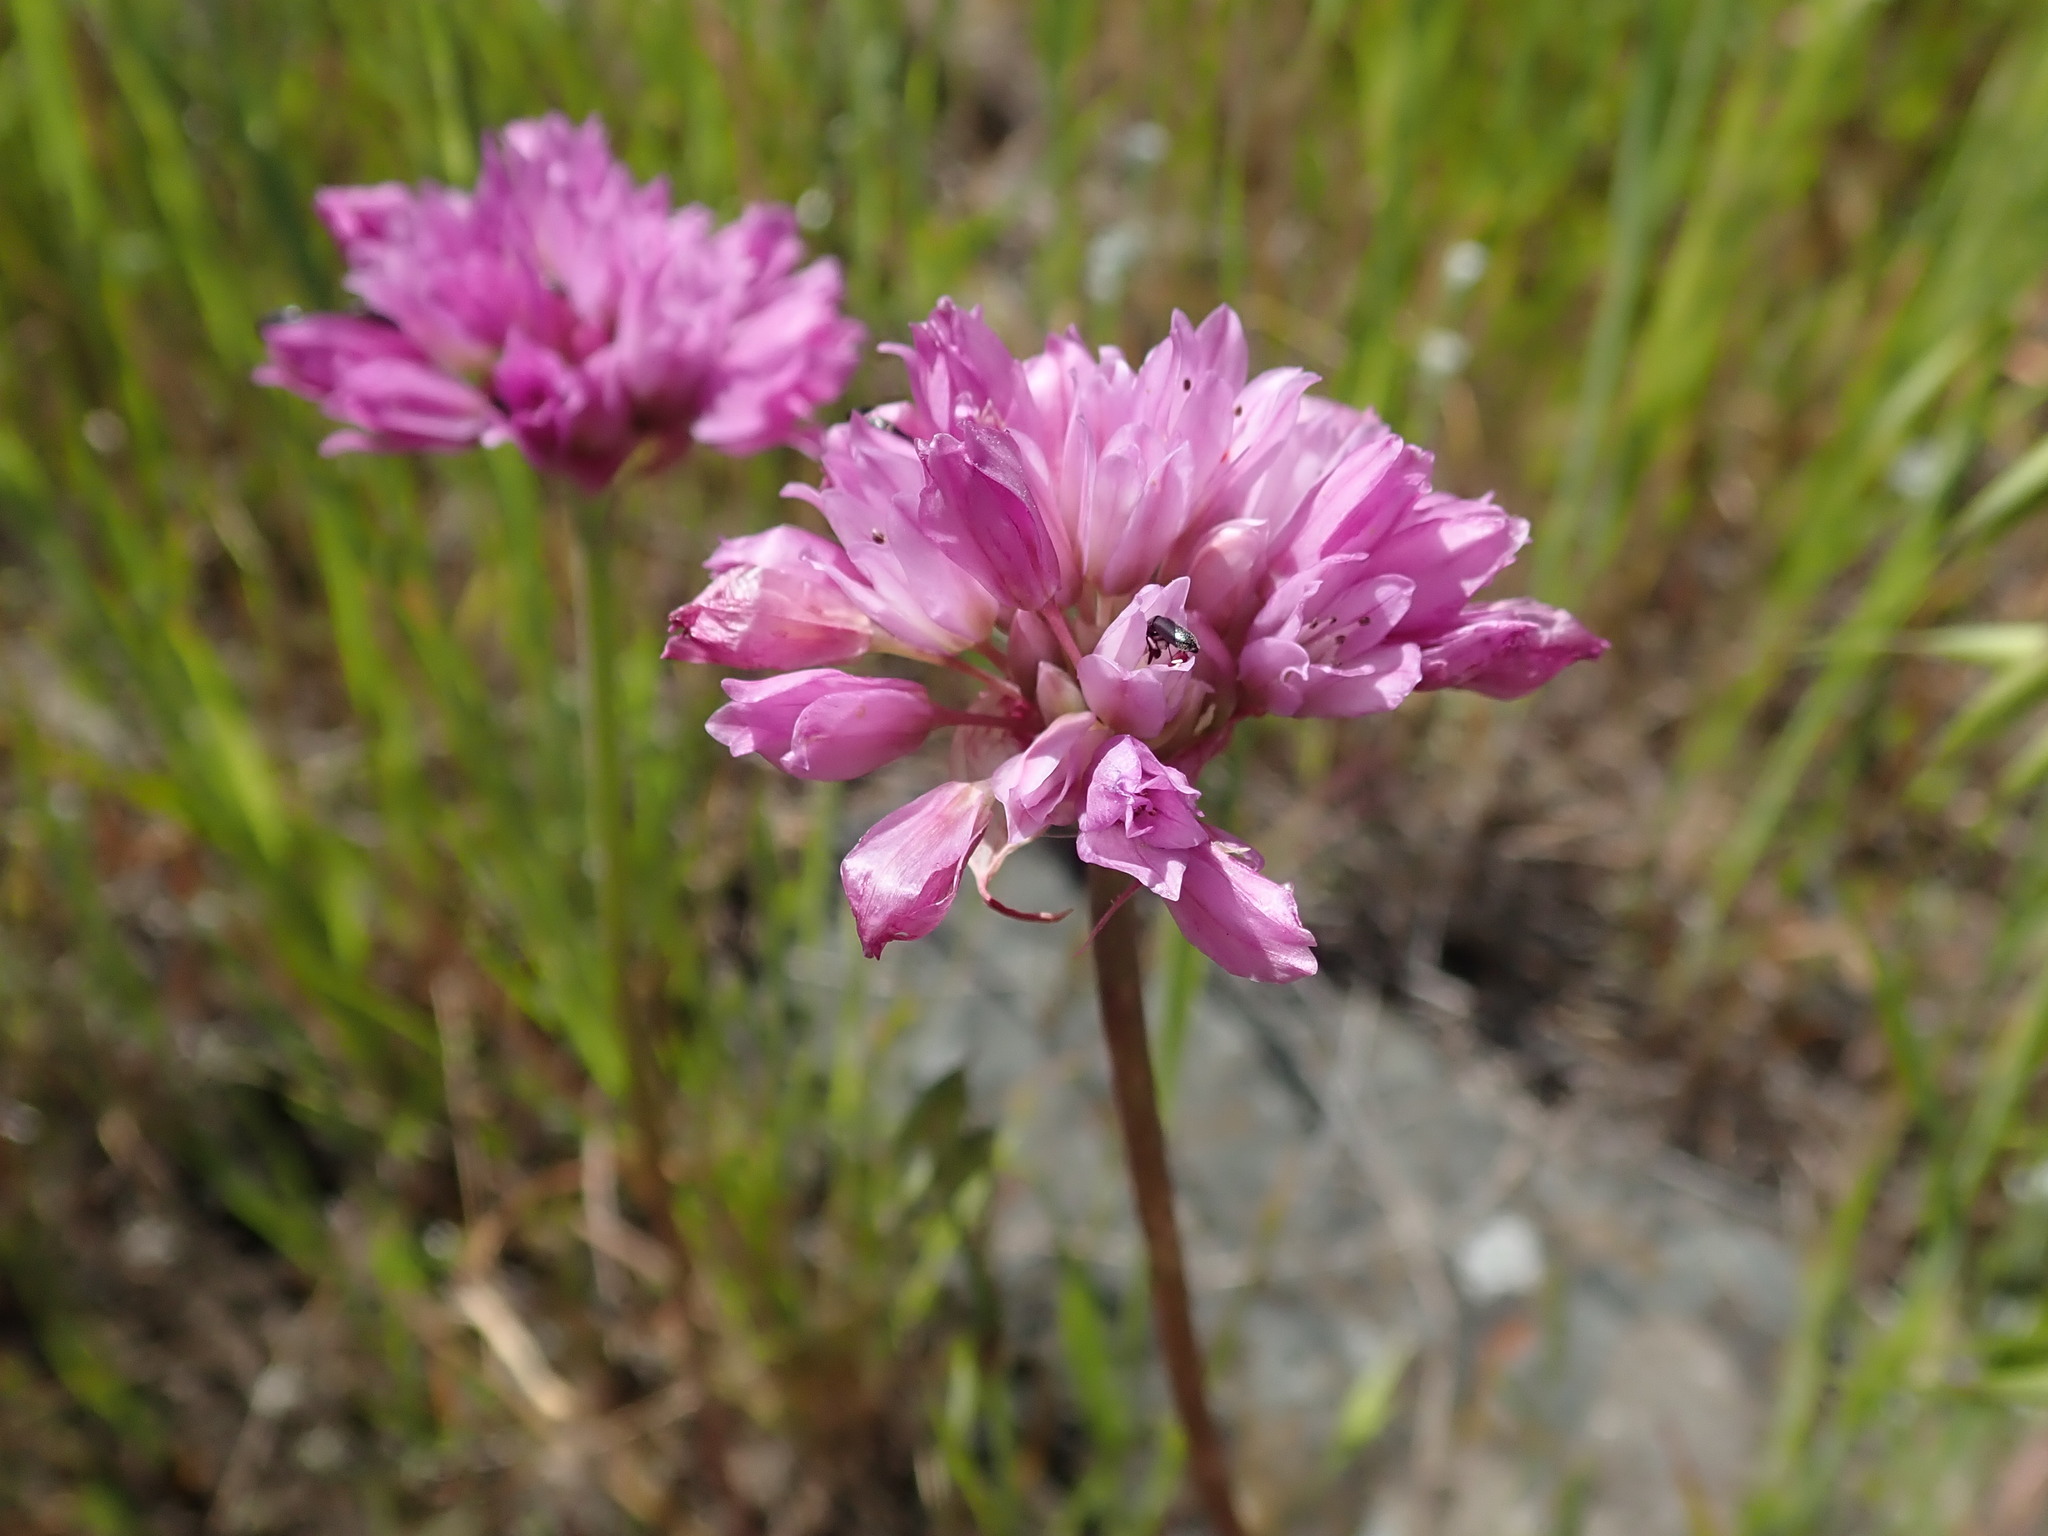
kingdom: Plantae
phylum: Tracheophyta
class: Liliopsida
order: Asparagales
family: Amaryllidaceae
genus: Allium
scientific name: Allium serra
